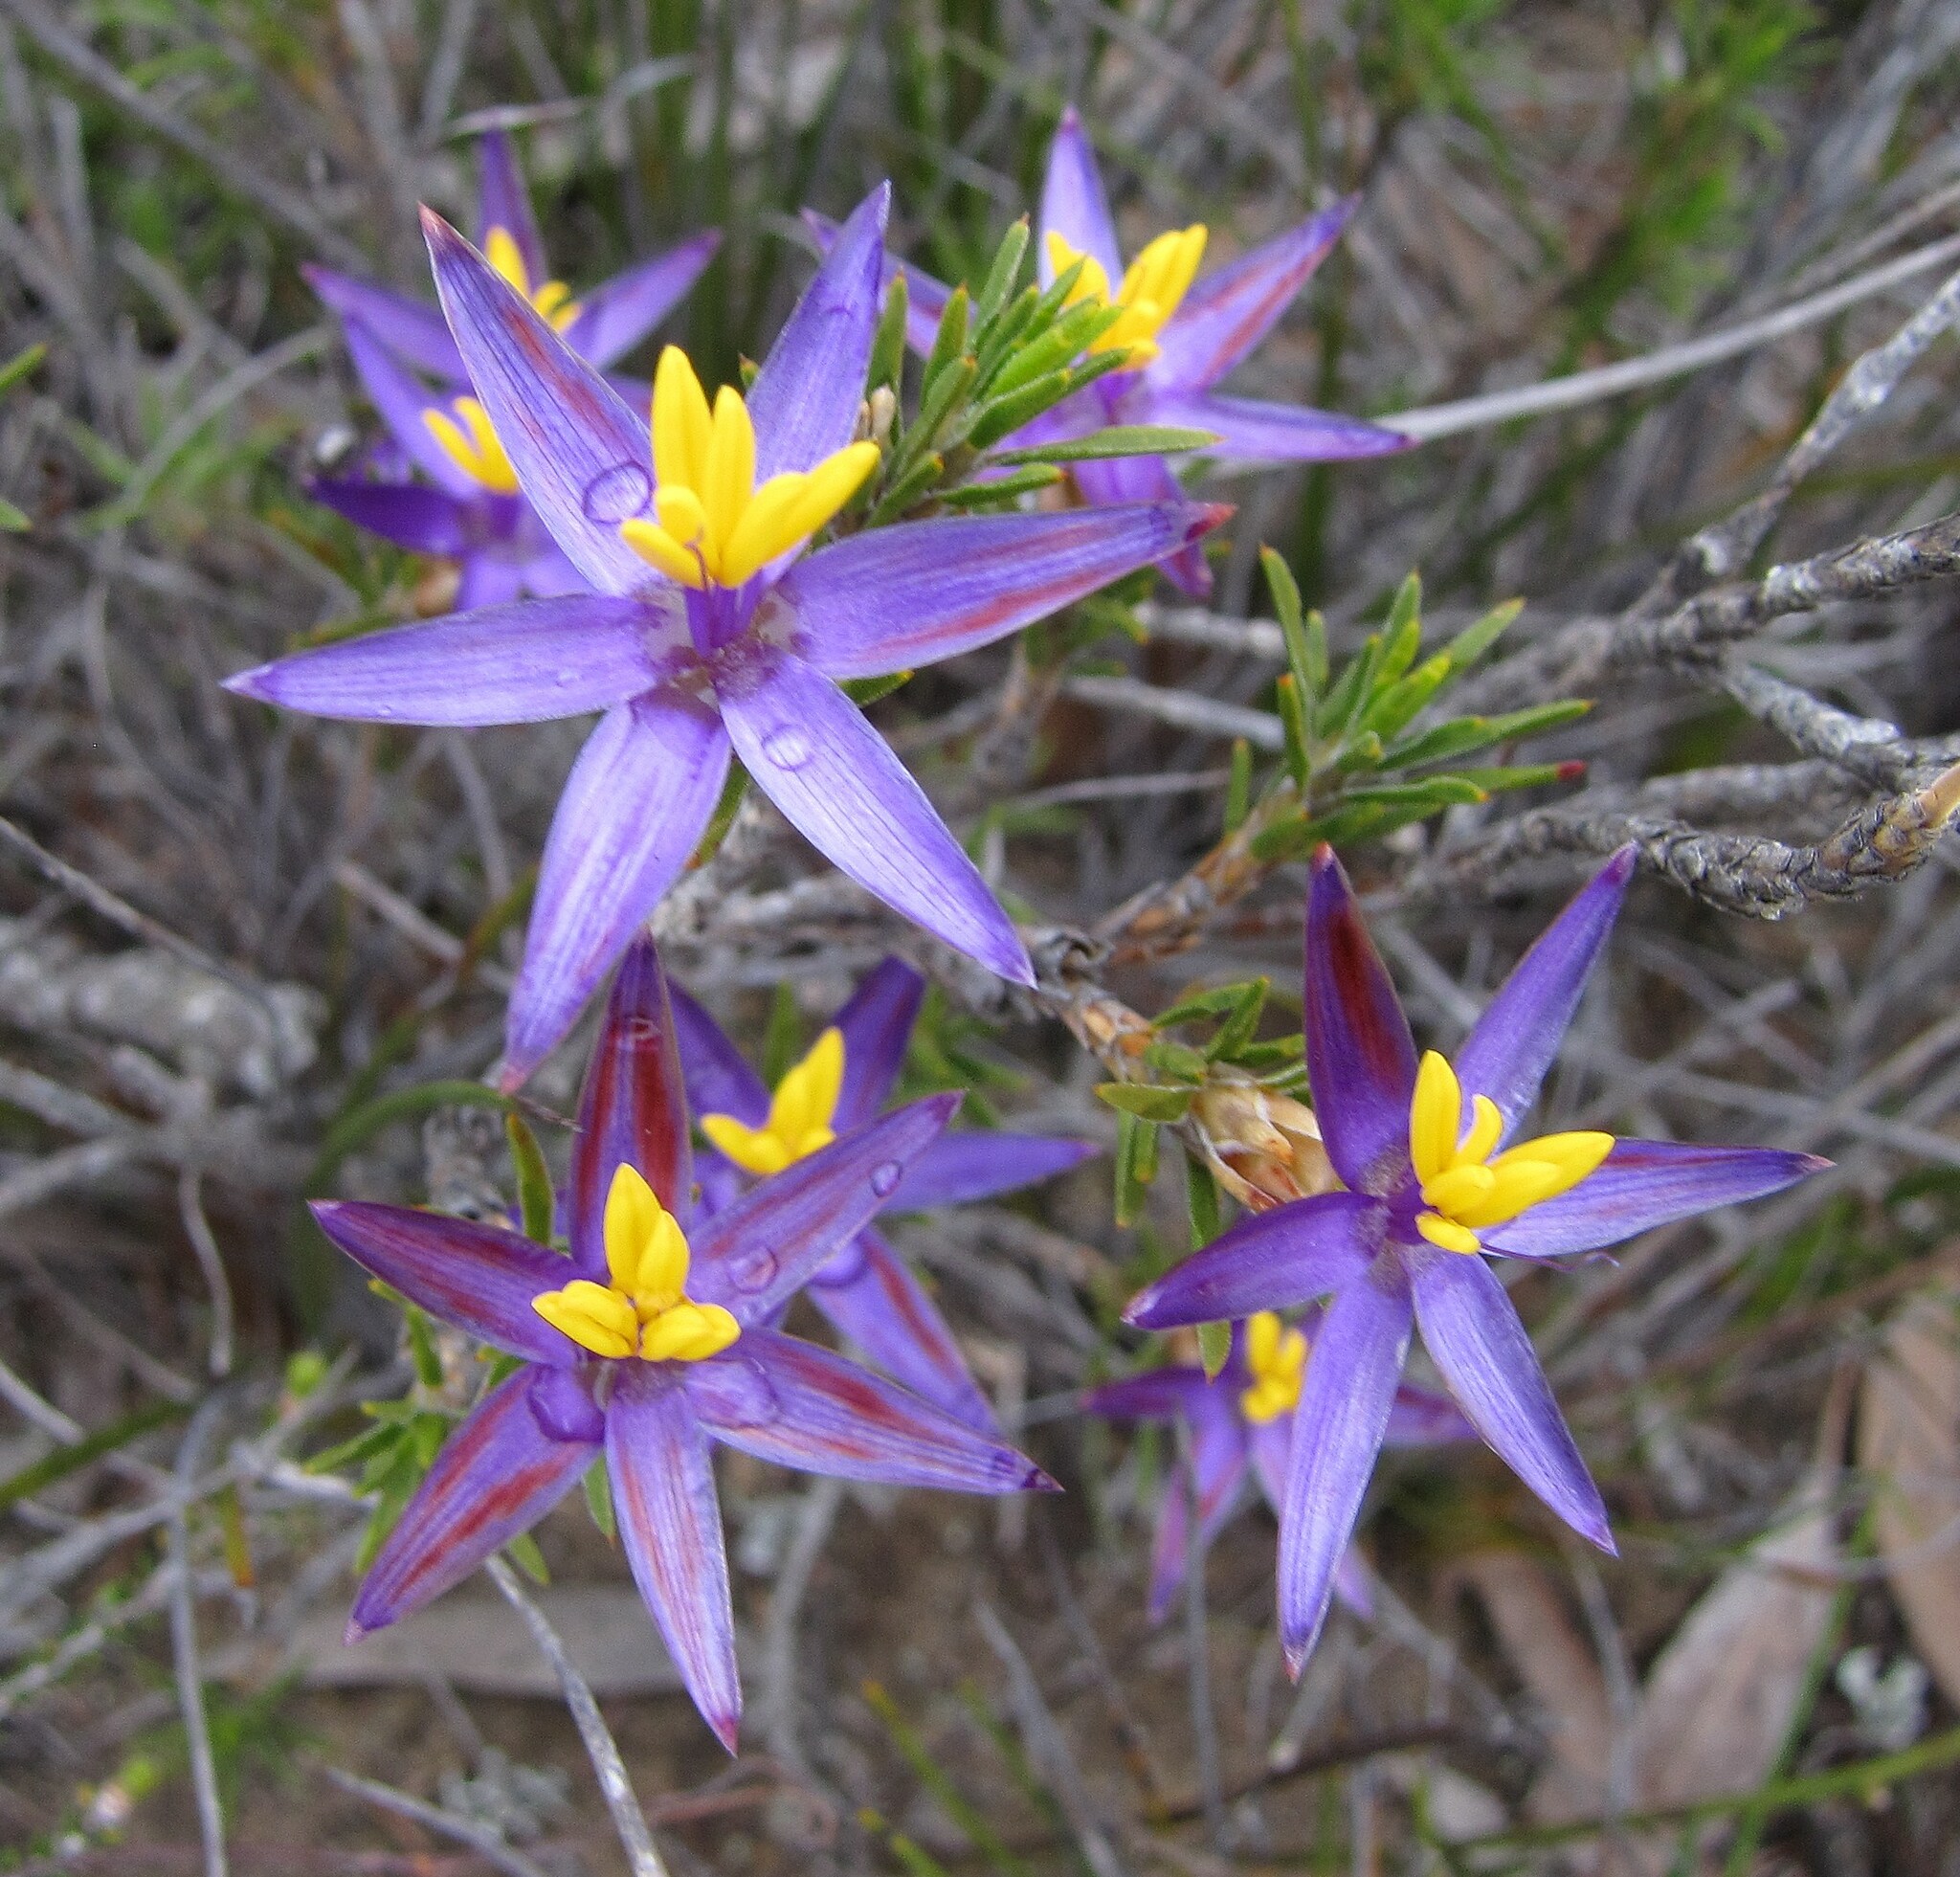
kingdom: Plantae
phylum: Tracheophyta
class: Liliopsida
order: Arecales
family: Dasypogonaceae
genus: Calectasia
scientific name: Calectasia valida
